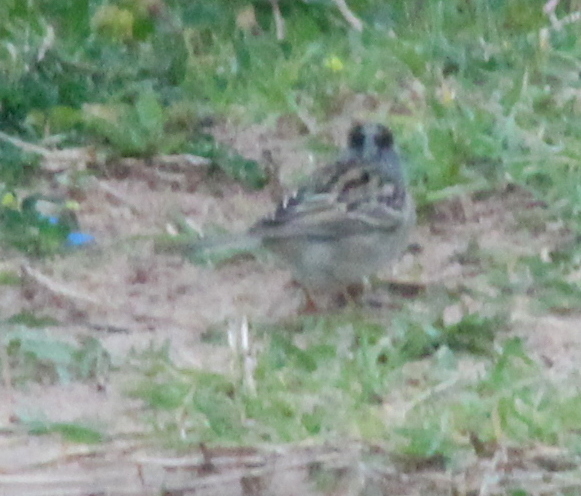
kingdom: Animalia
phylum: Chordata
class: Aves
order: Passeriformes
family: Passerellidae
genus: Spizella
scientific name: Spizella pallida
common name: Clay-colored sparrow
